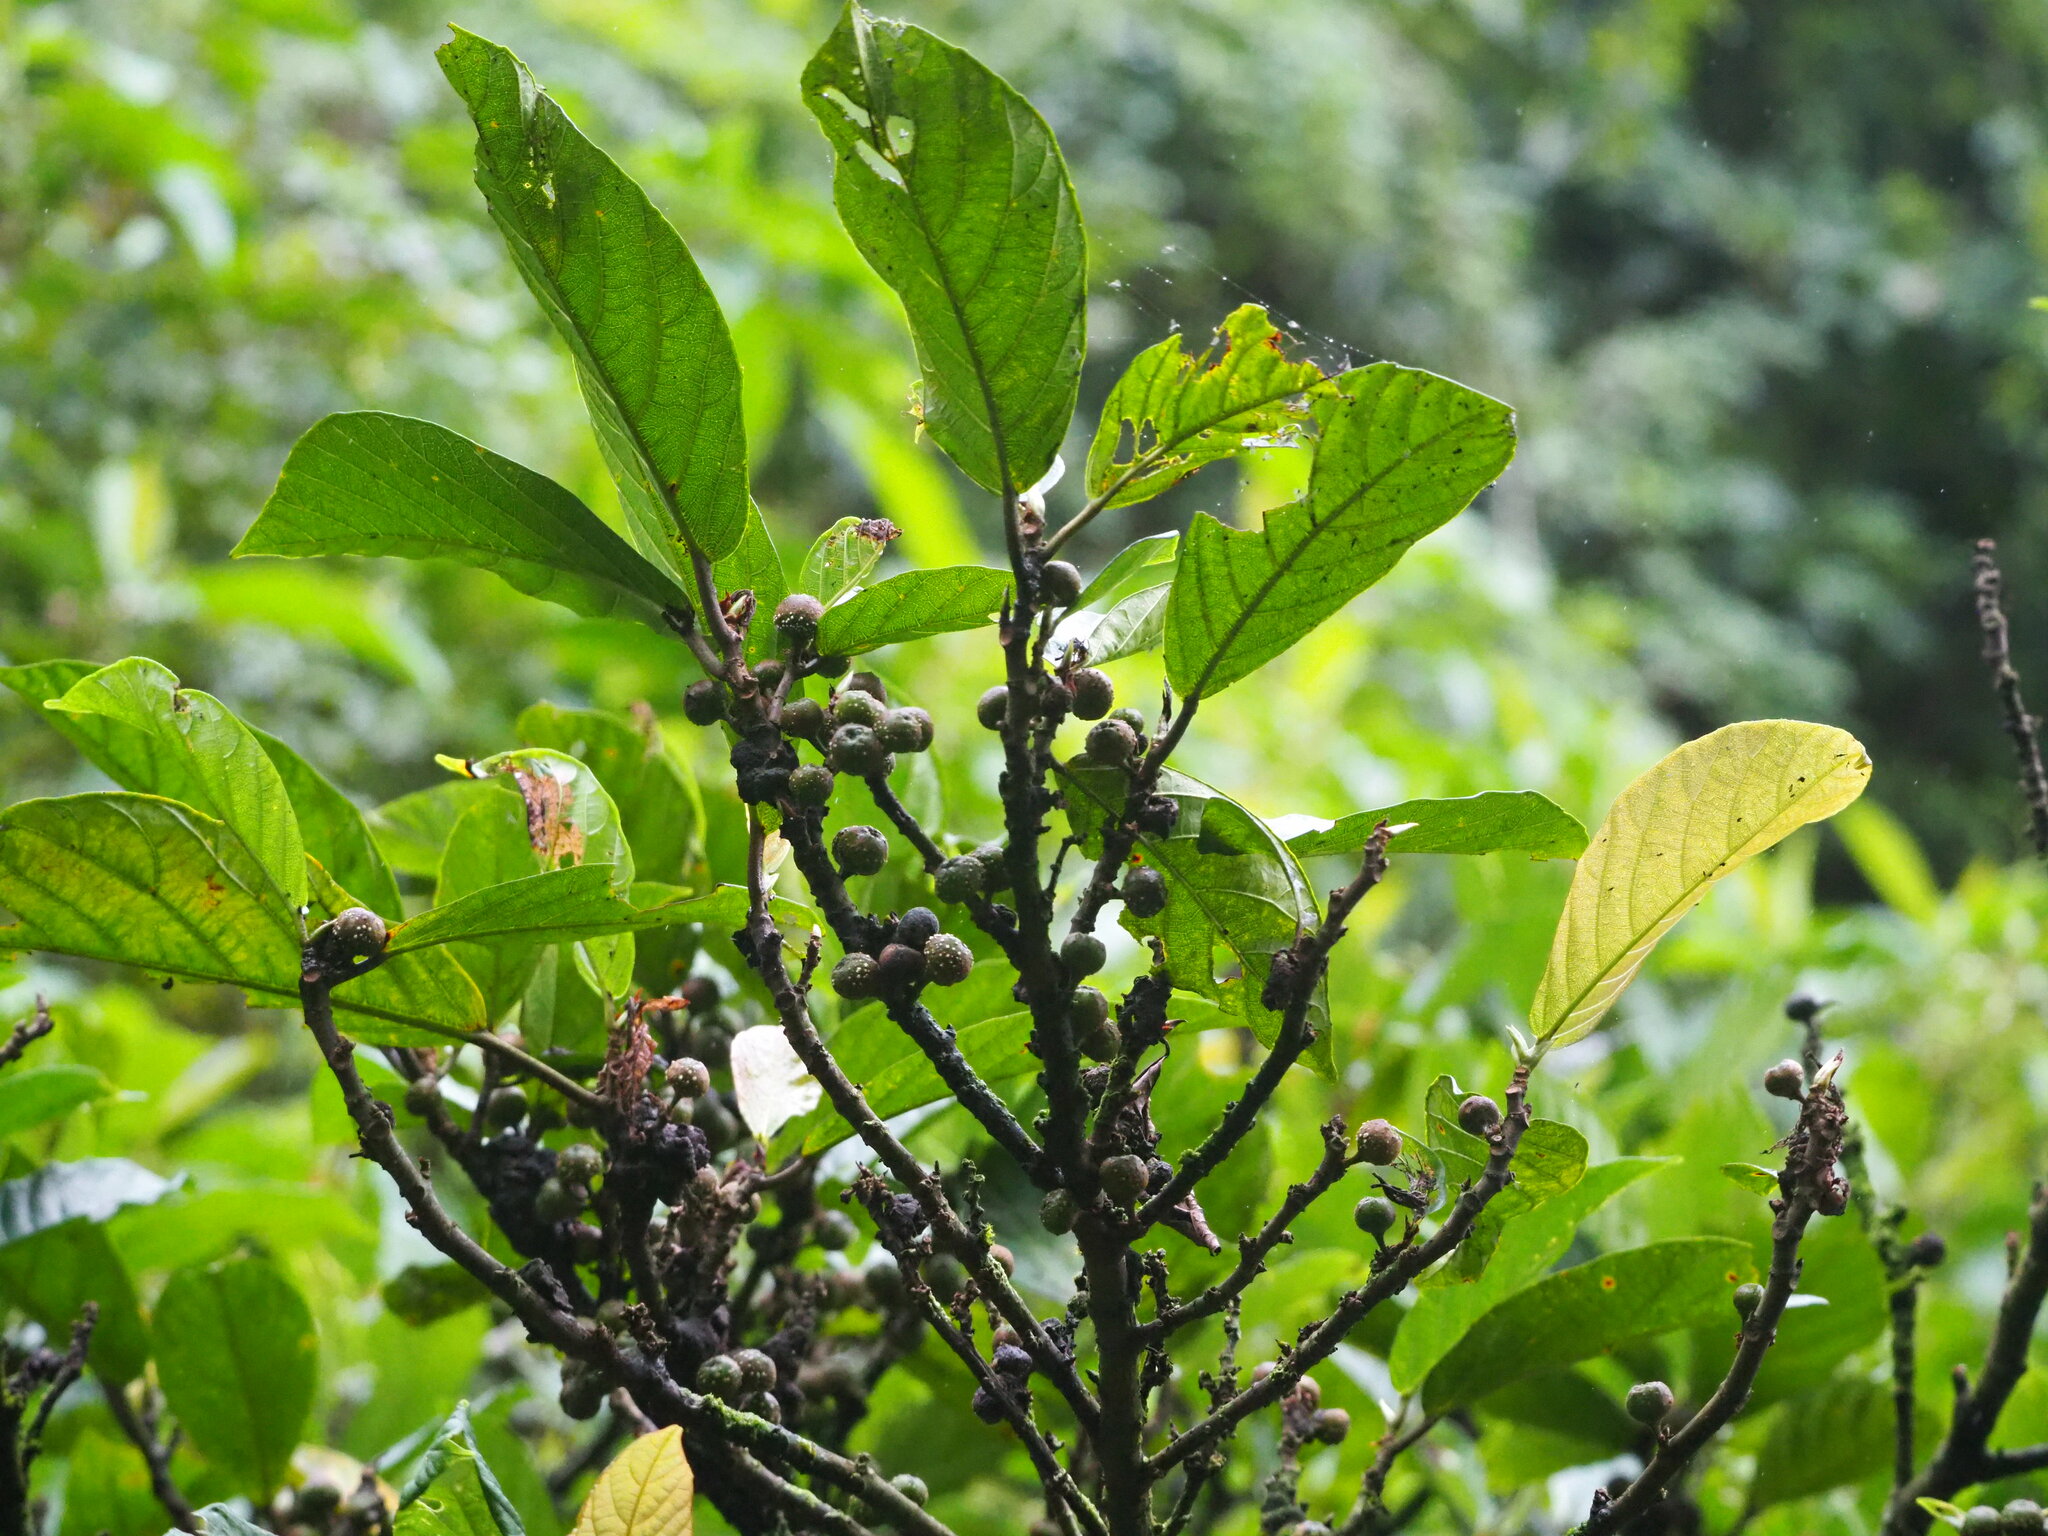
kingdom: Plantae
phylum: Tracheophyta
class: Magnoliopsida
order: Rosales
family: Moraceae
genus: Ficus
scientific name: Ficus benguetensis
